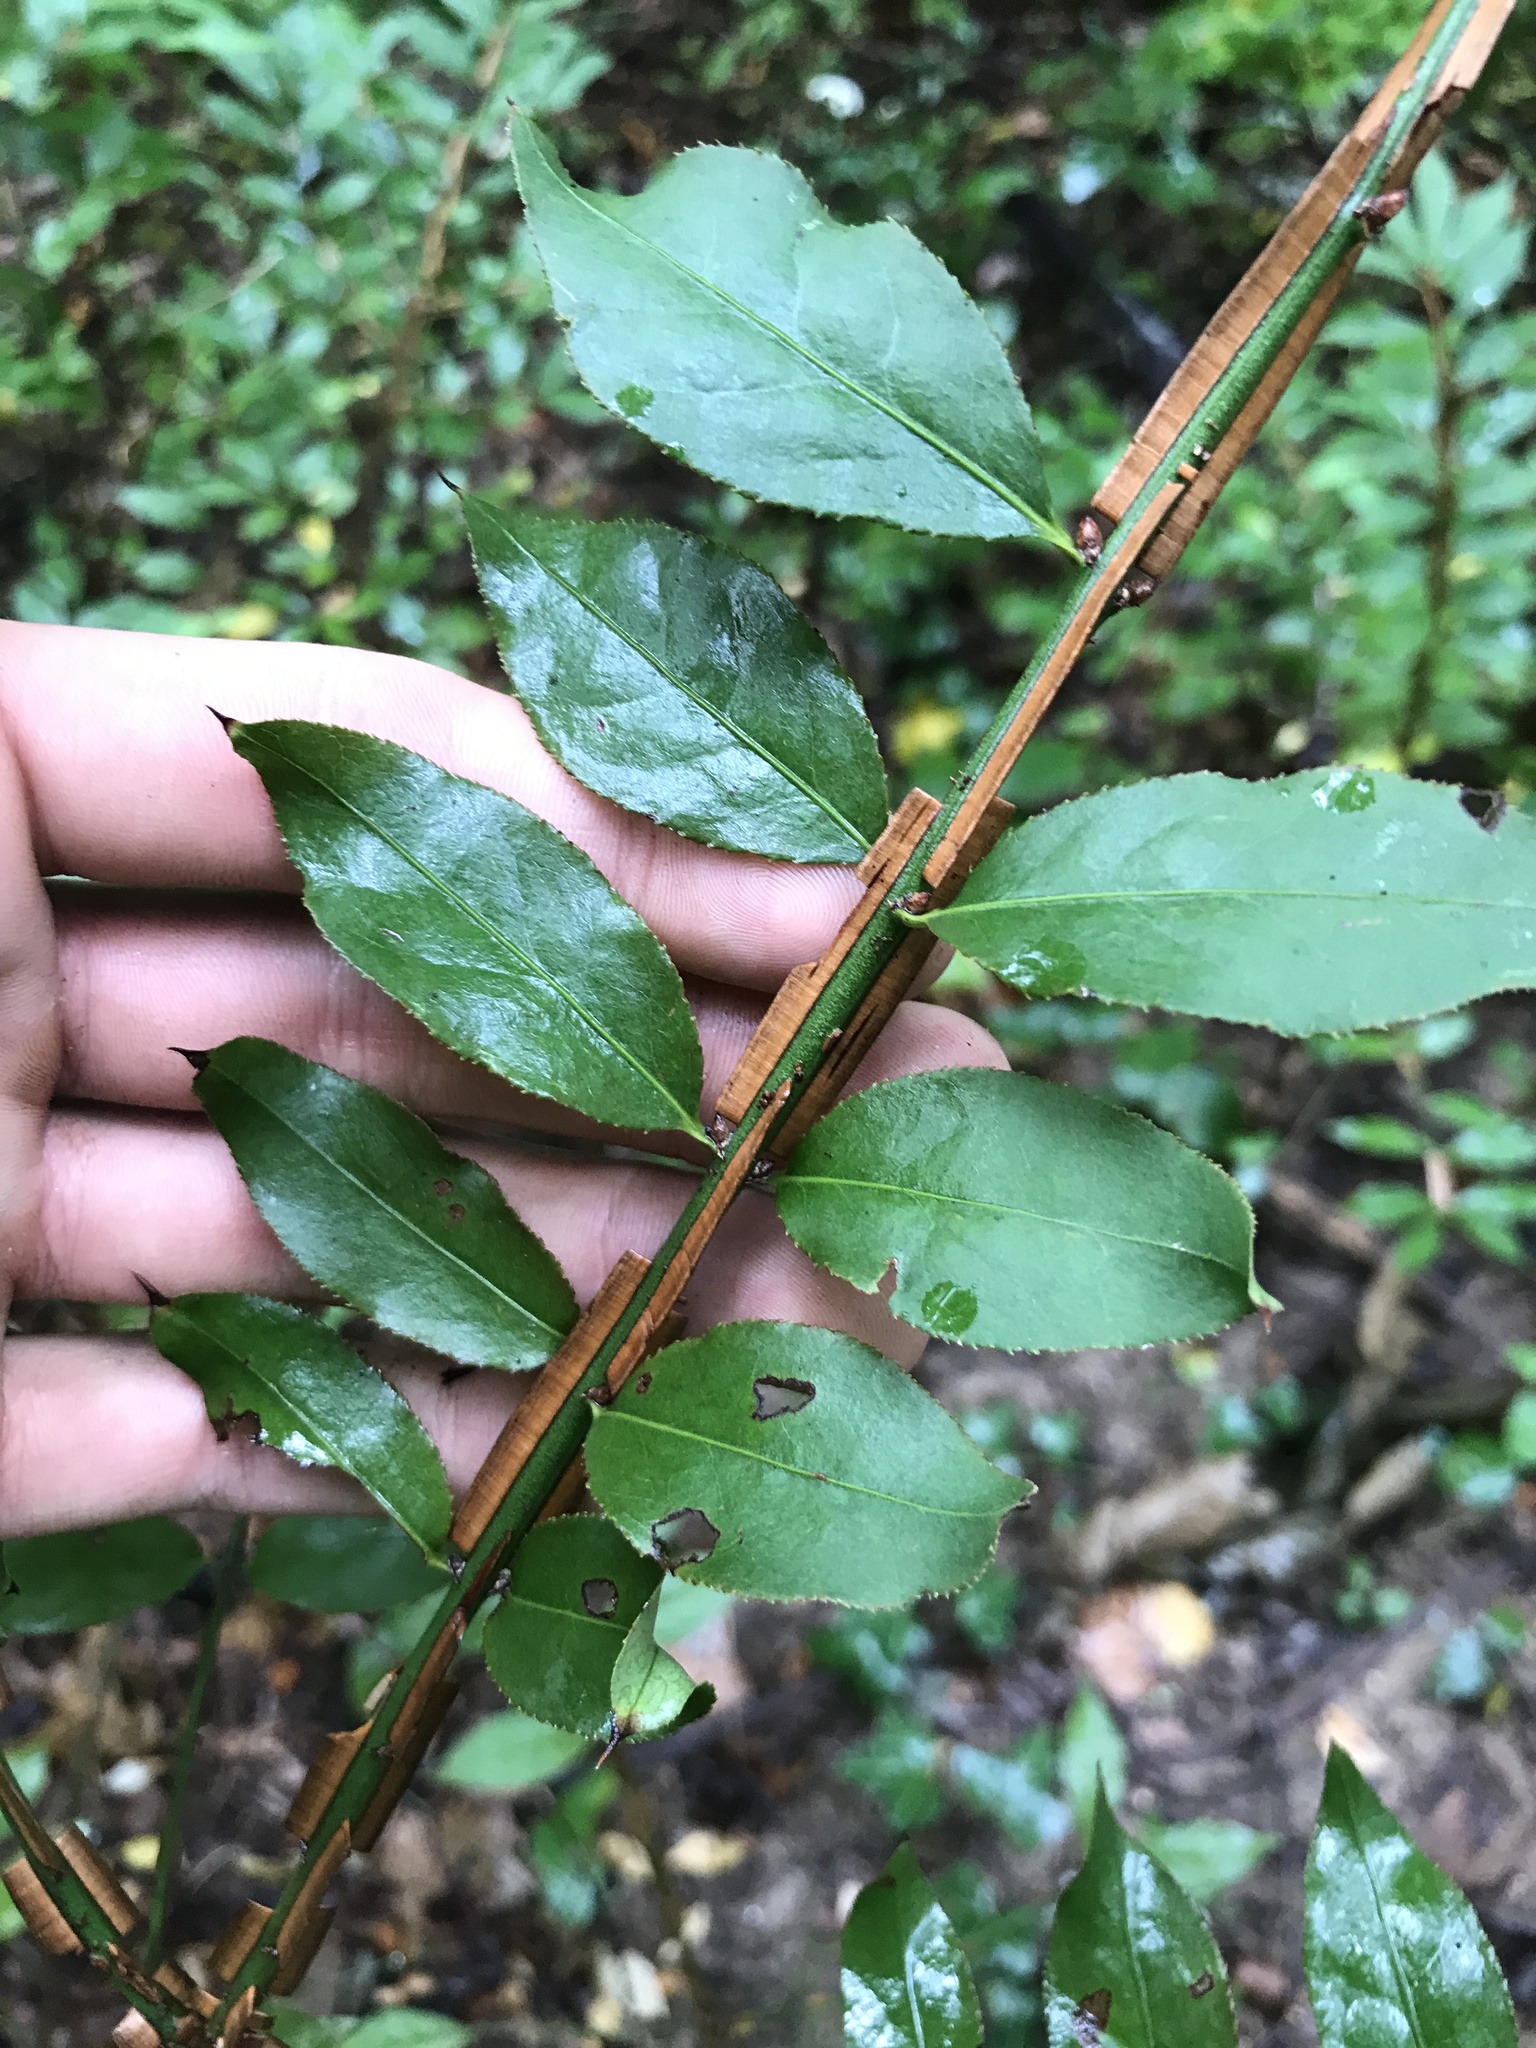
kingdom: Plantae
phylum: Tracheophyta
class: Magnoliopsida
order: Celastrales
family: Celastraceae
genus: Euonymus
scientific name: Euonymus alatus
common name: Winged euonymus
